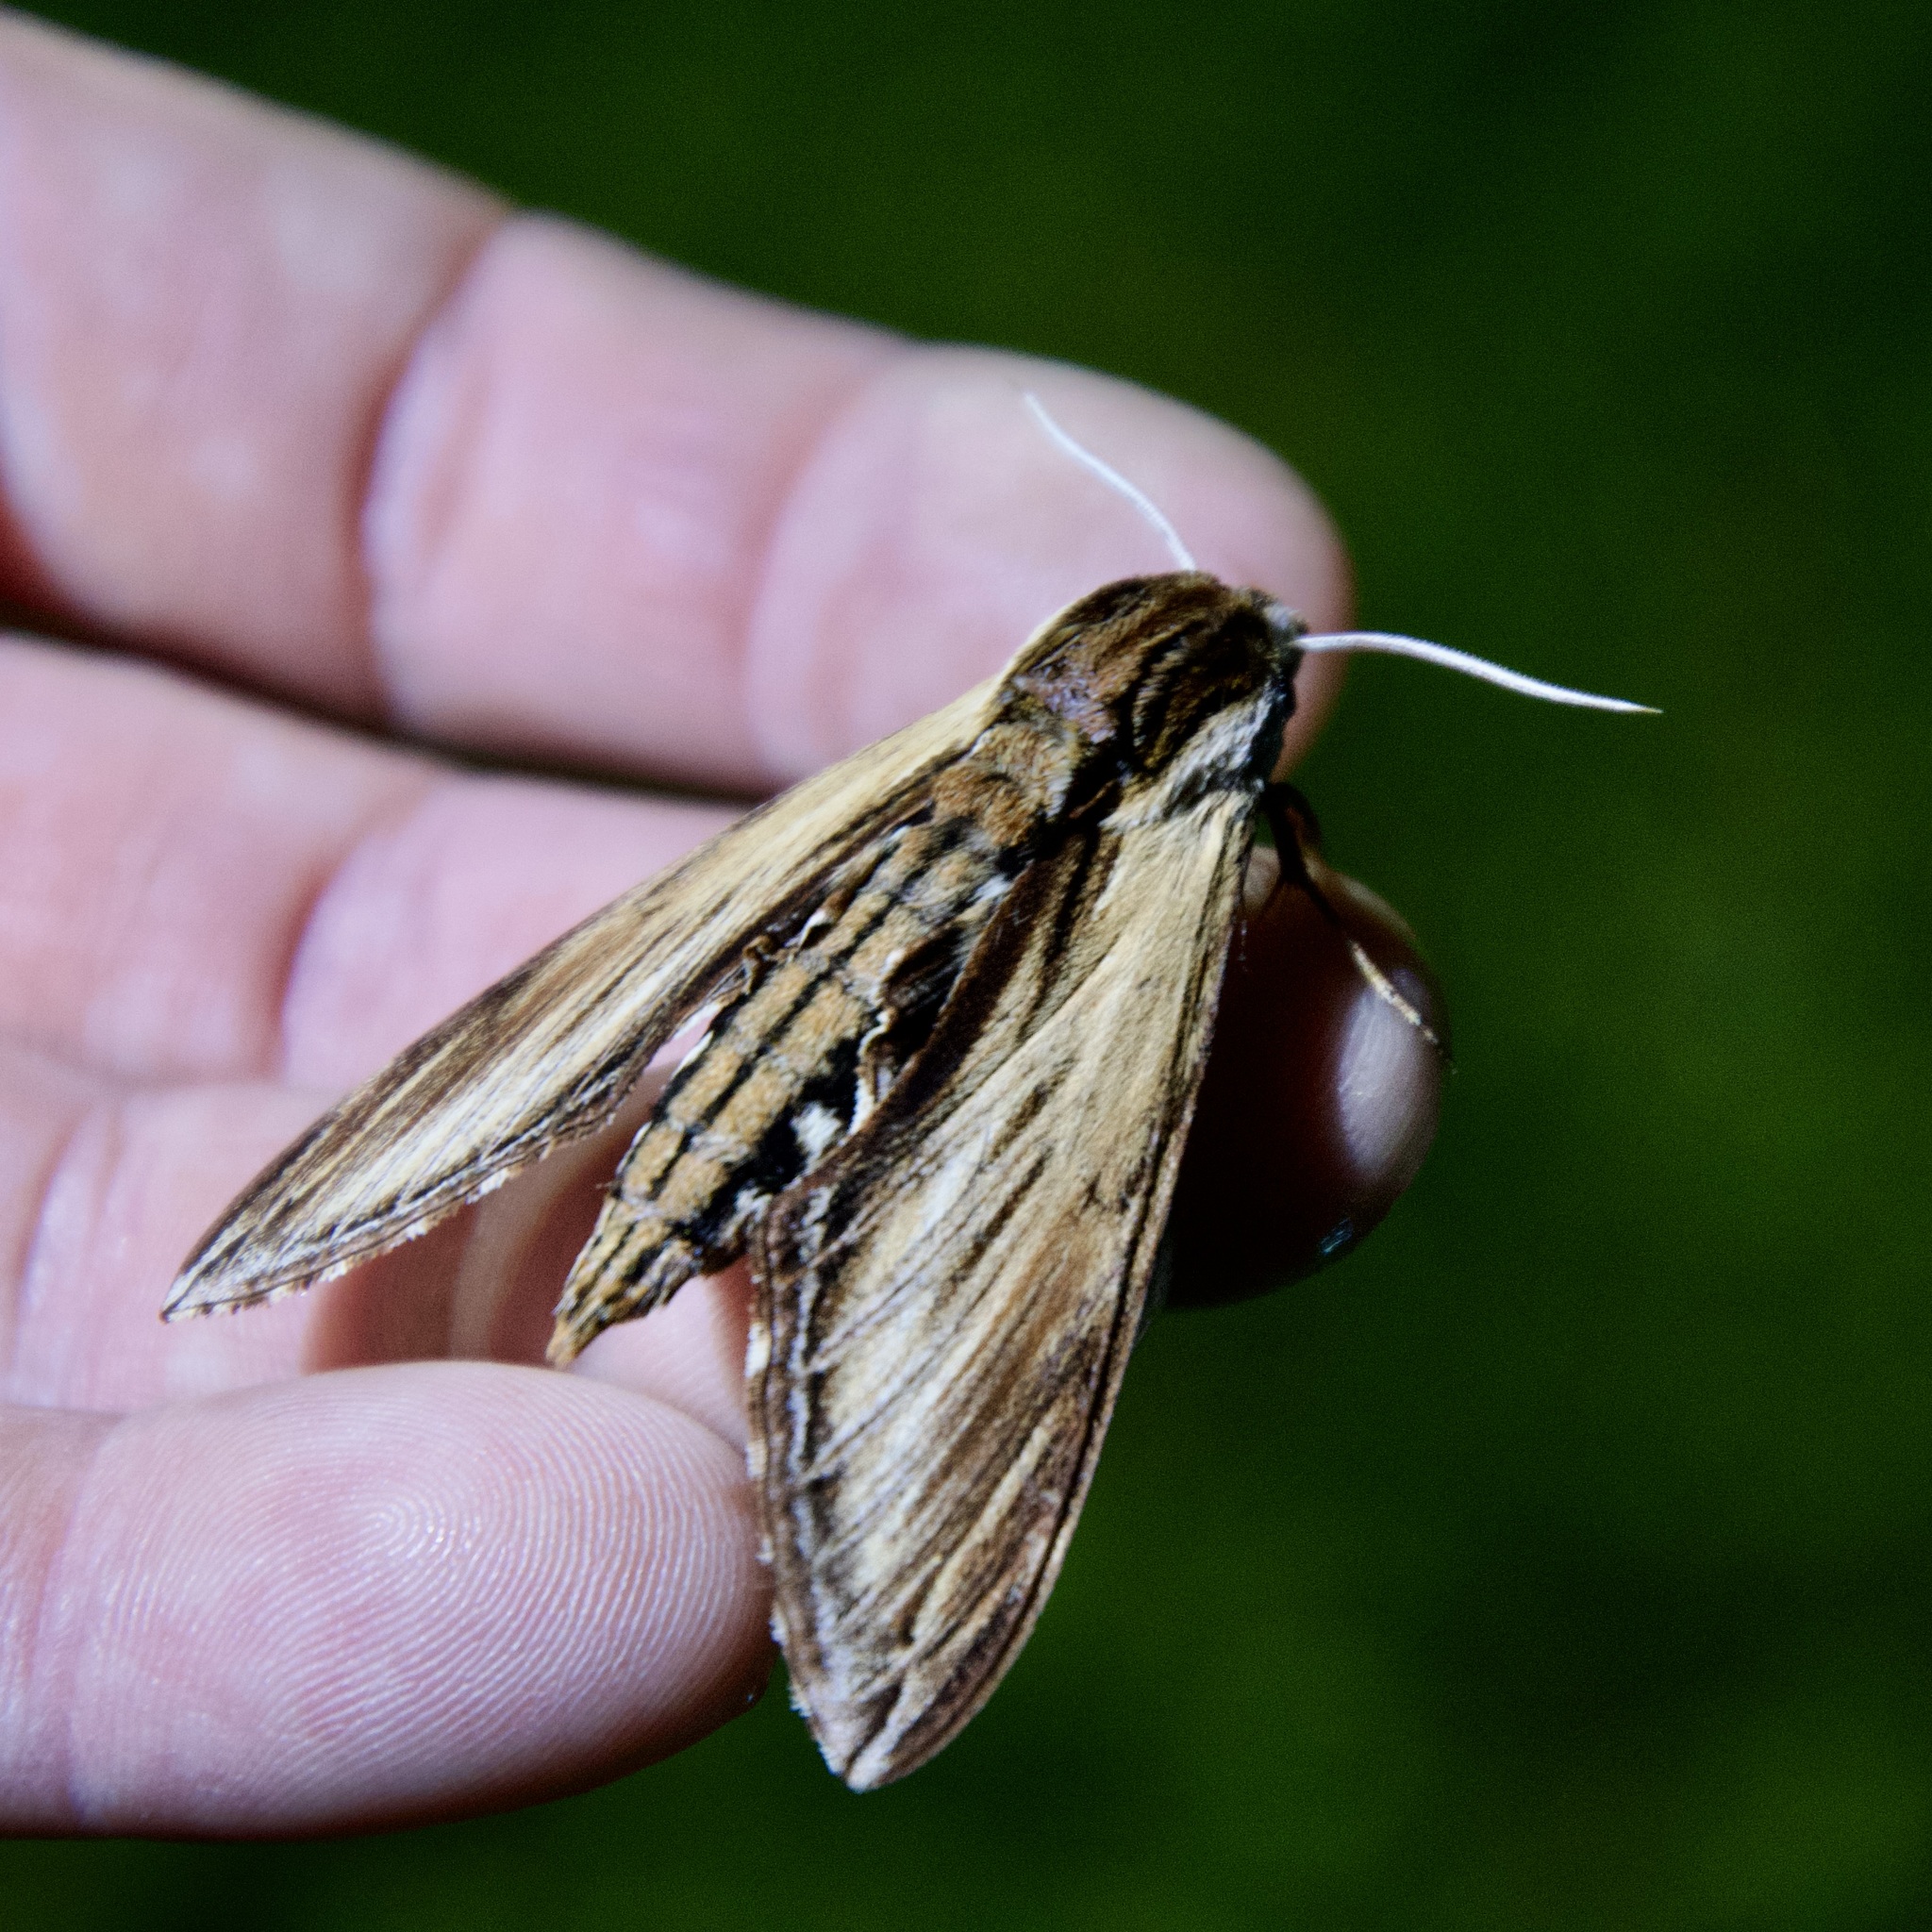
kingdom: Animalia
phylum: Arthropoda
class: Insecta
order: Lepidoptera
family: Sphingidae
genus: Sphinx
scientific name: Sphinx kalmiae
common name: Laurel sphinx
